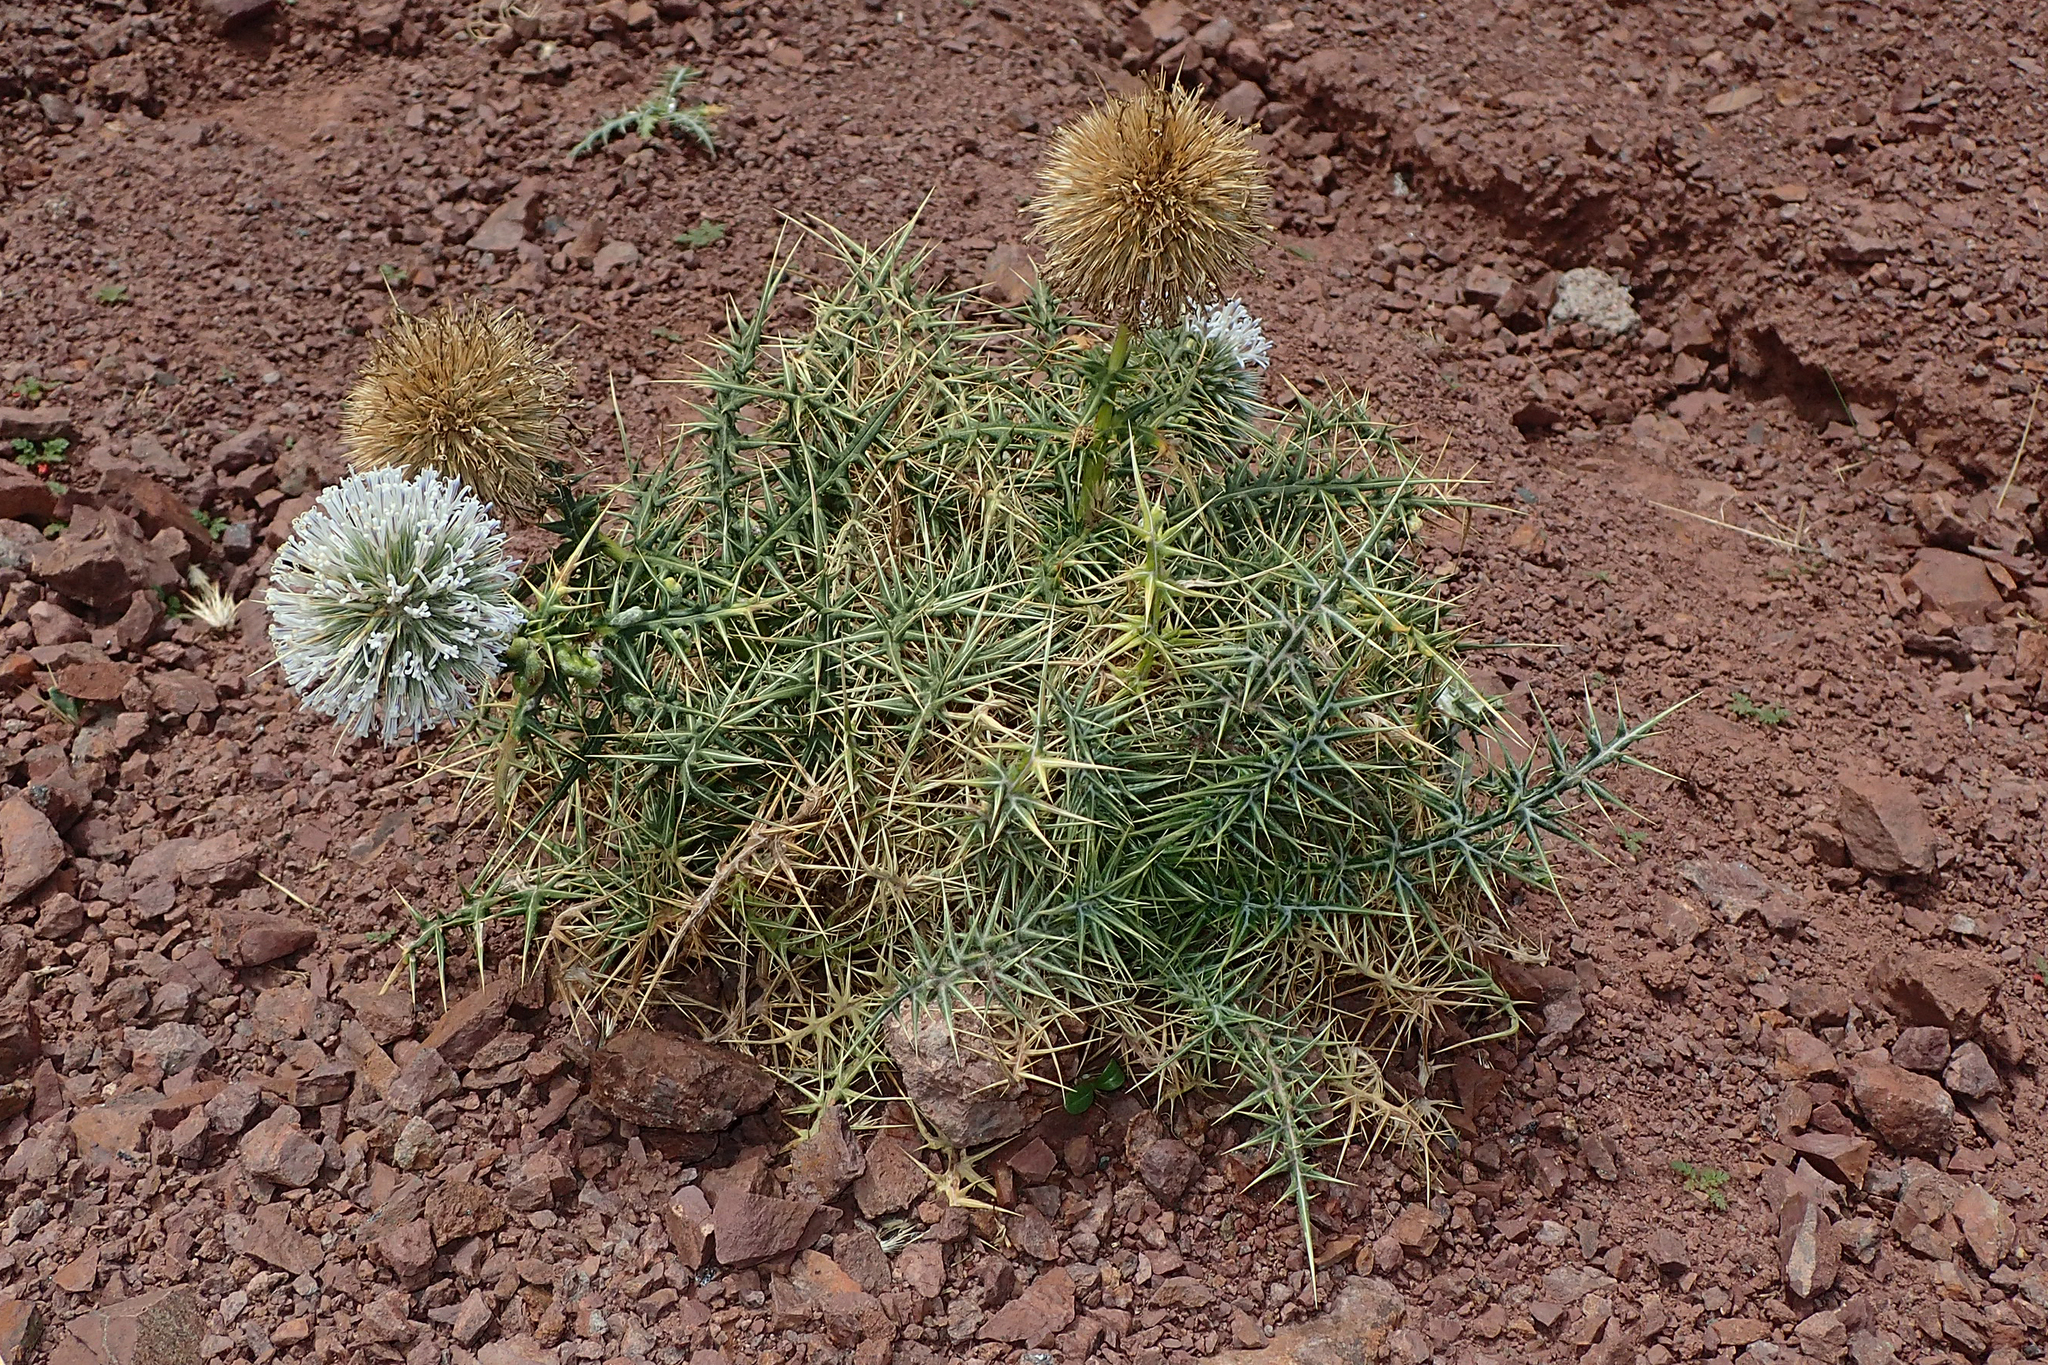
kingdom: Plantae
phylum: Tracheophyta
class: Magnoliopsida
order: Asterales
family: Asteraceae
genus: Echinops
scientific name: Echinops
